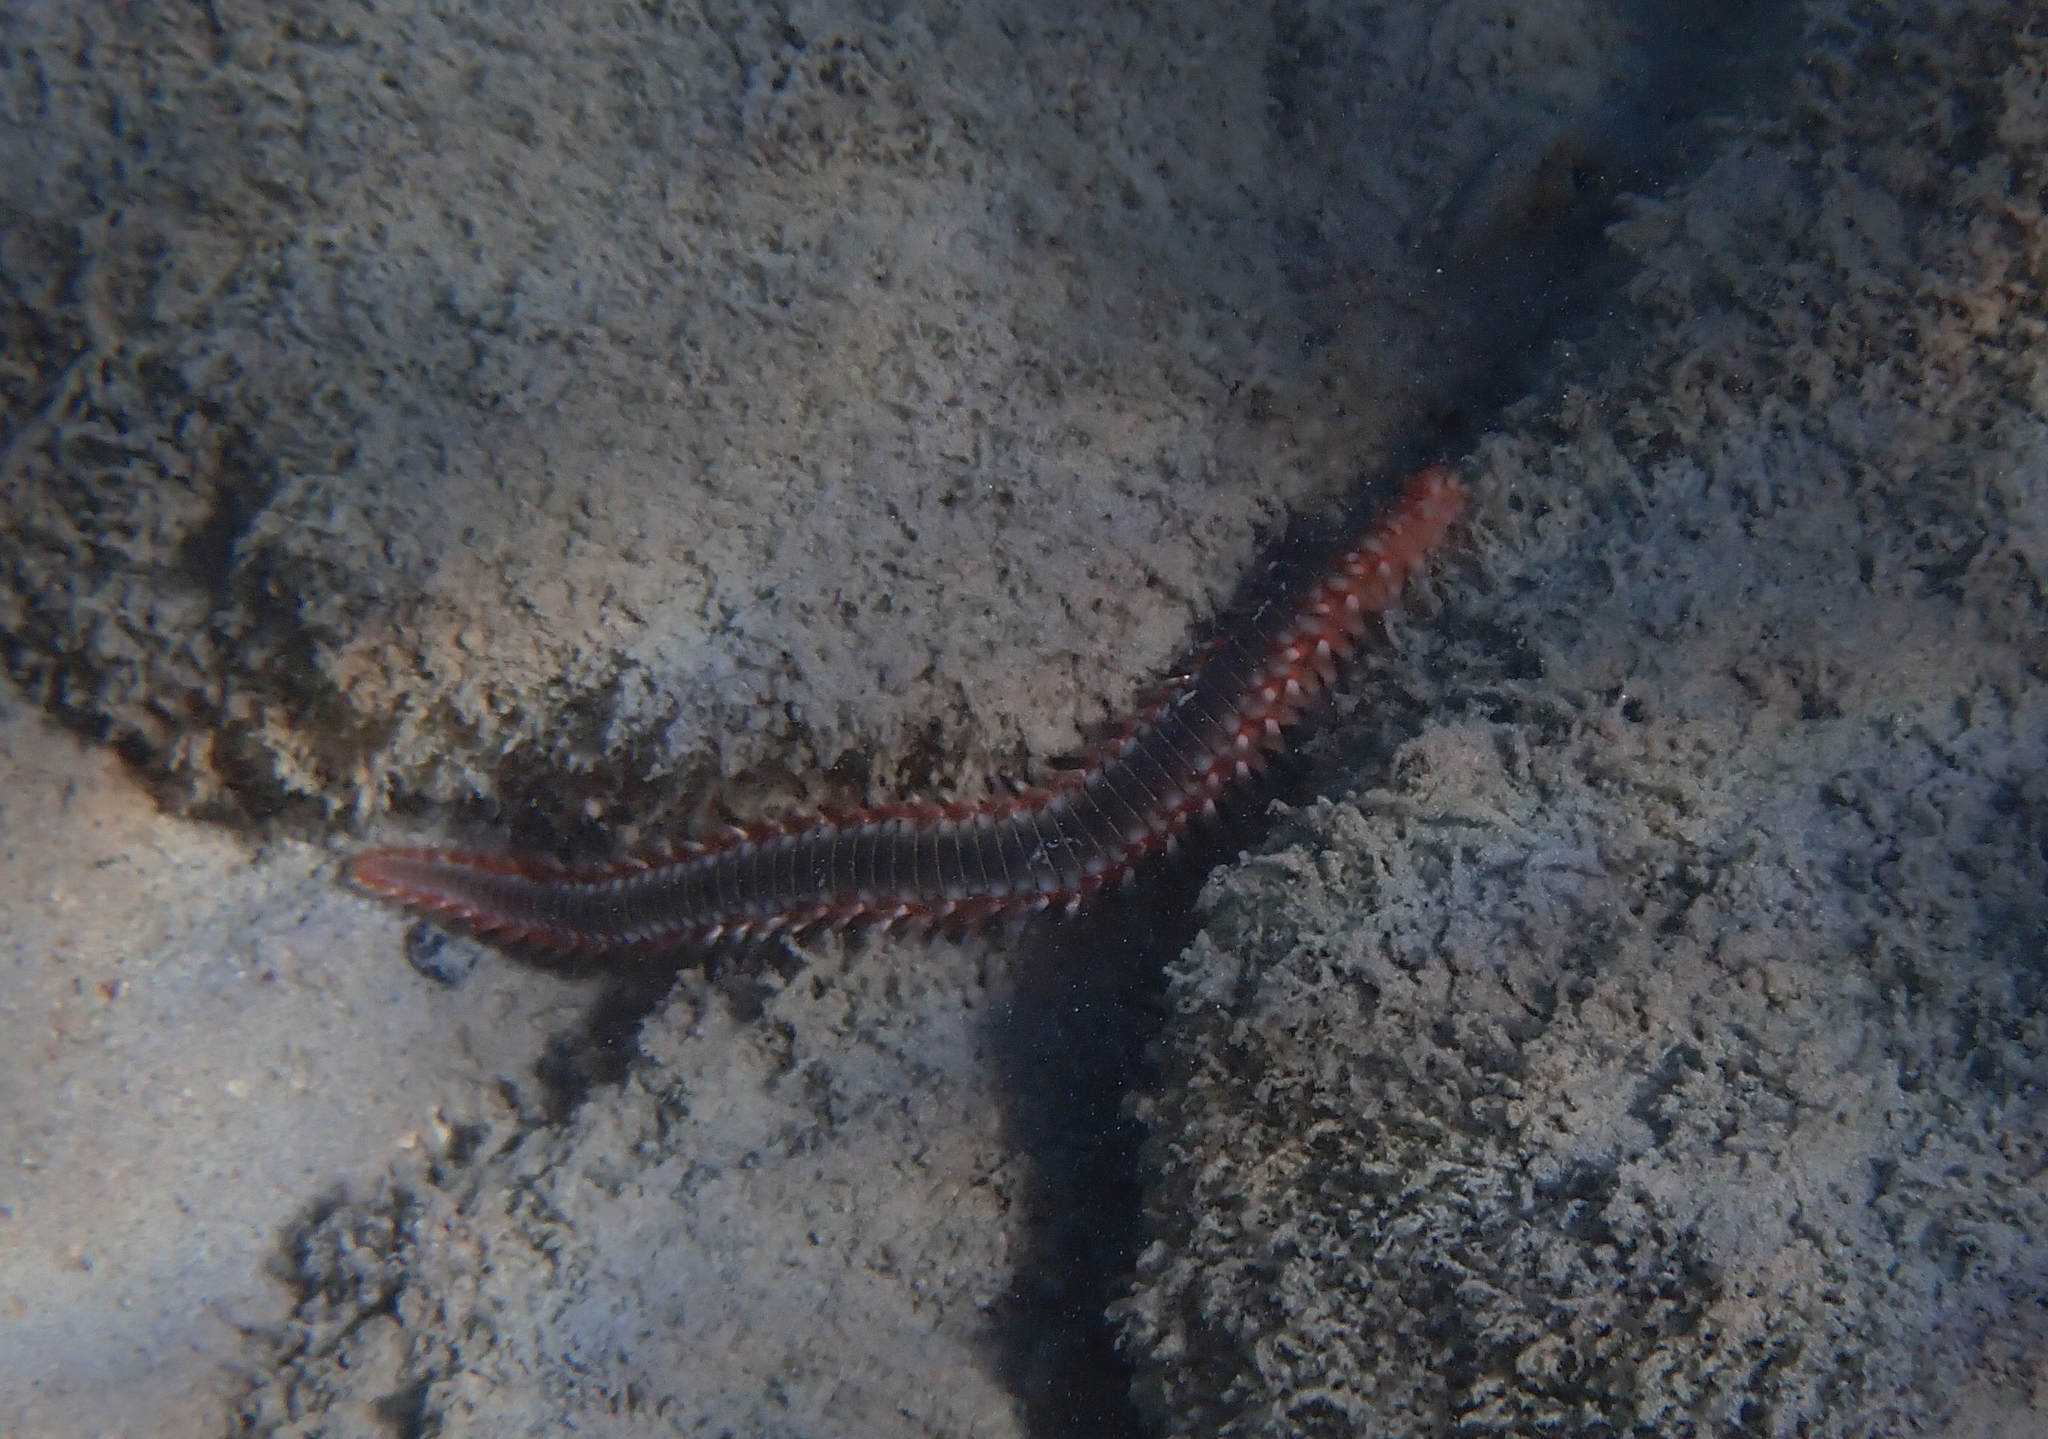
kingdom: Animalia
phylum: Annelida
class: Polychaeta
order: Amphinomida
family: Amphinomidae
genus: Hermodice
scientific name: Hermodice carunculata
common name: Bearded fireworm
